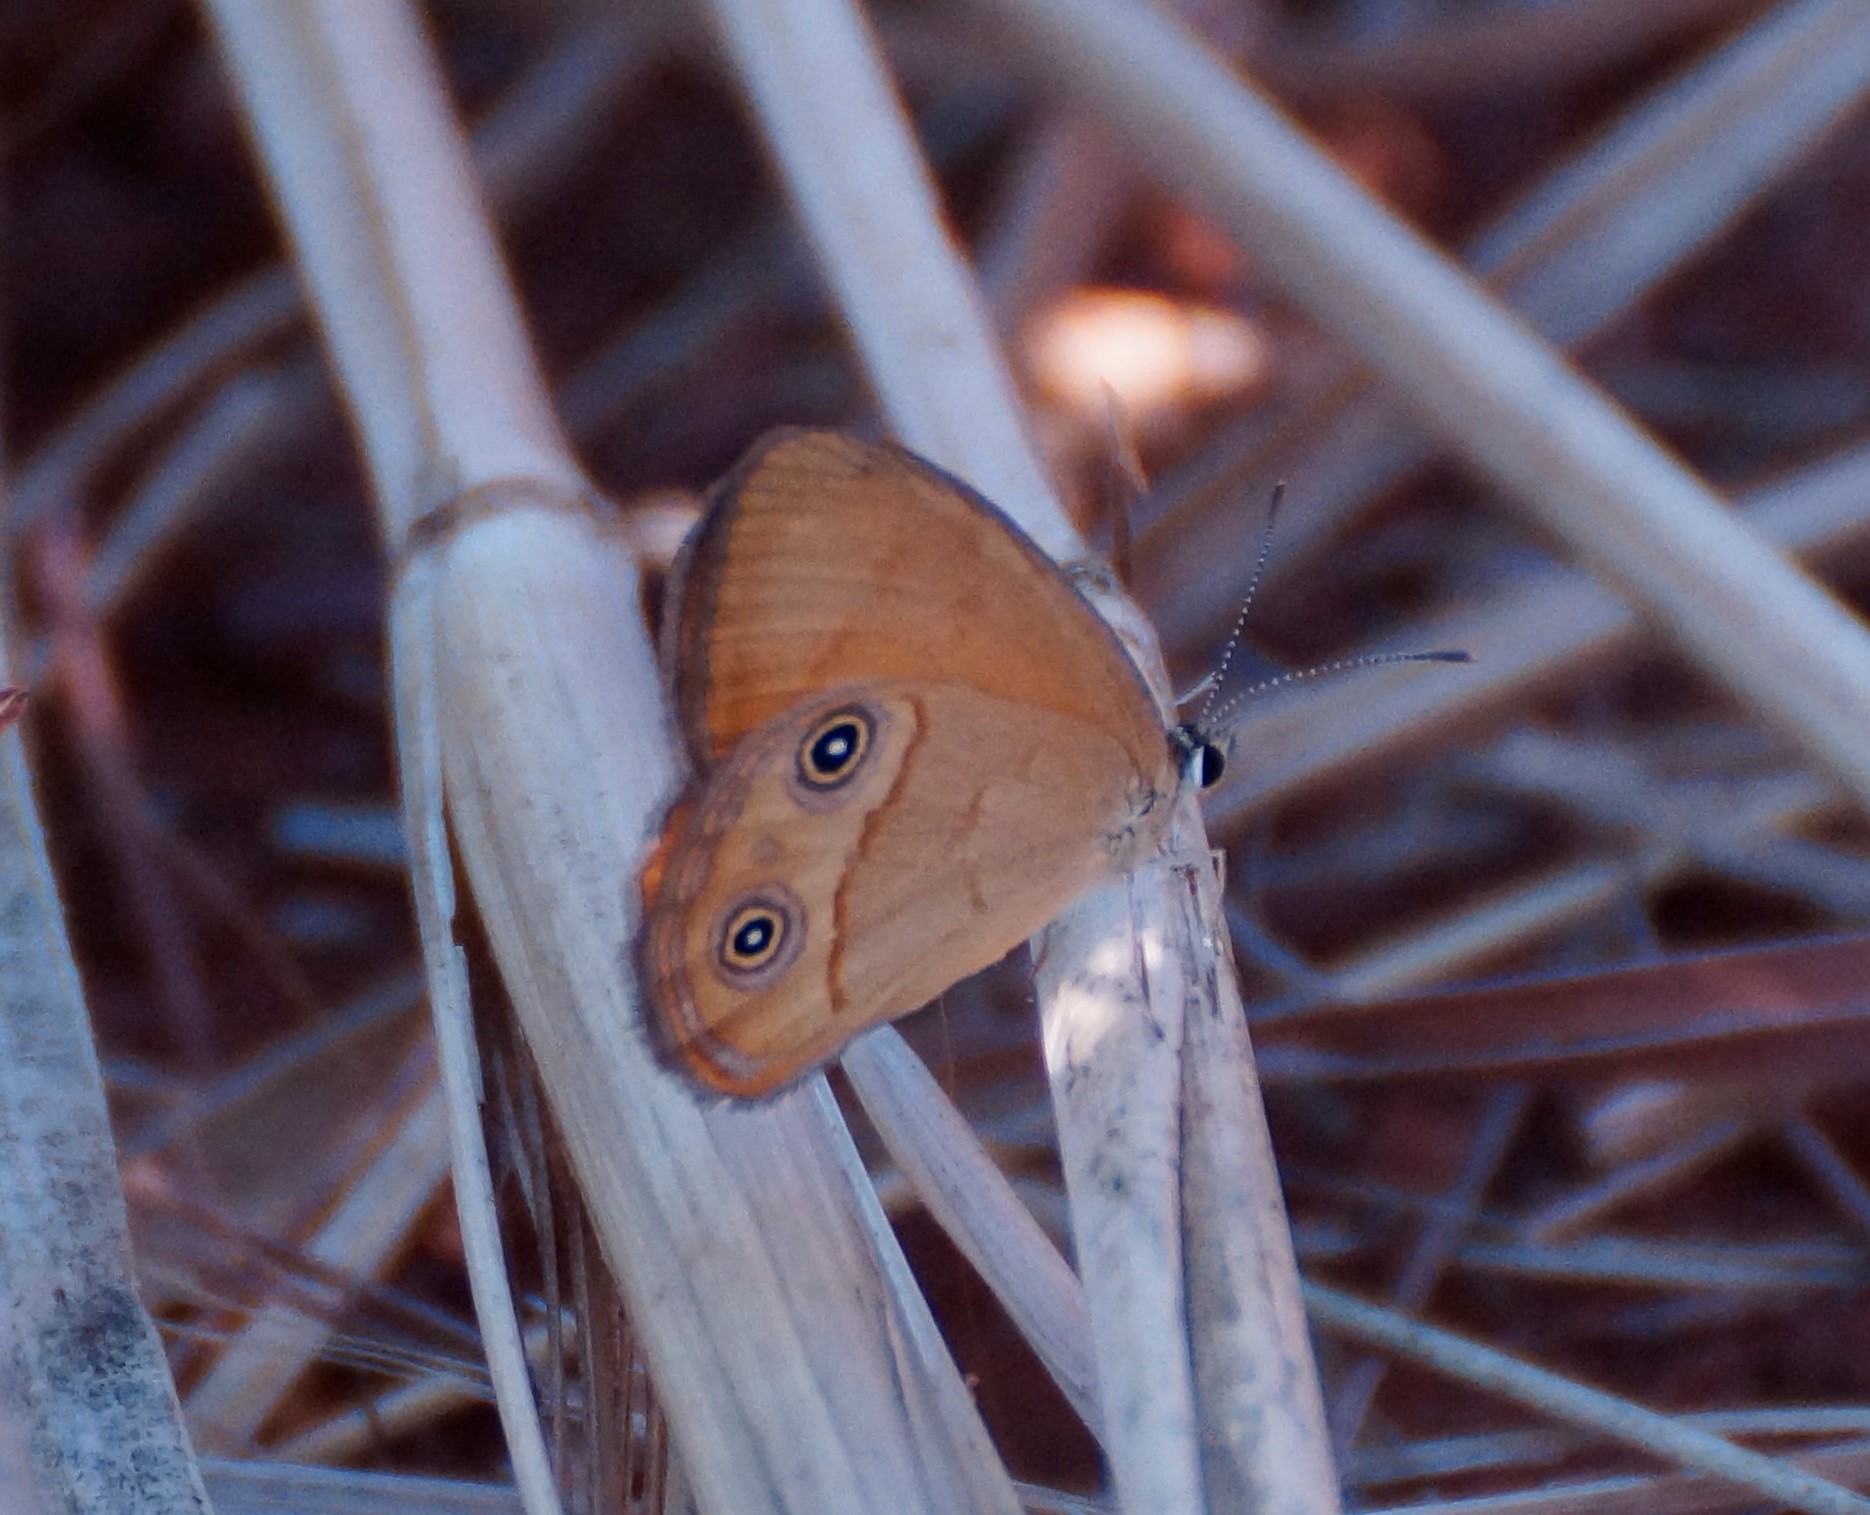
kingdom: Animalia
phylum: Arthropoda
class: Insecta
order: Lepidoptera
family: Nymphalidae
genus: Hypocysta
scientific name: Hypocysta adiante
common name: Orange ringlet
